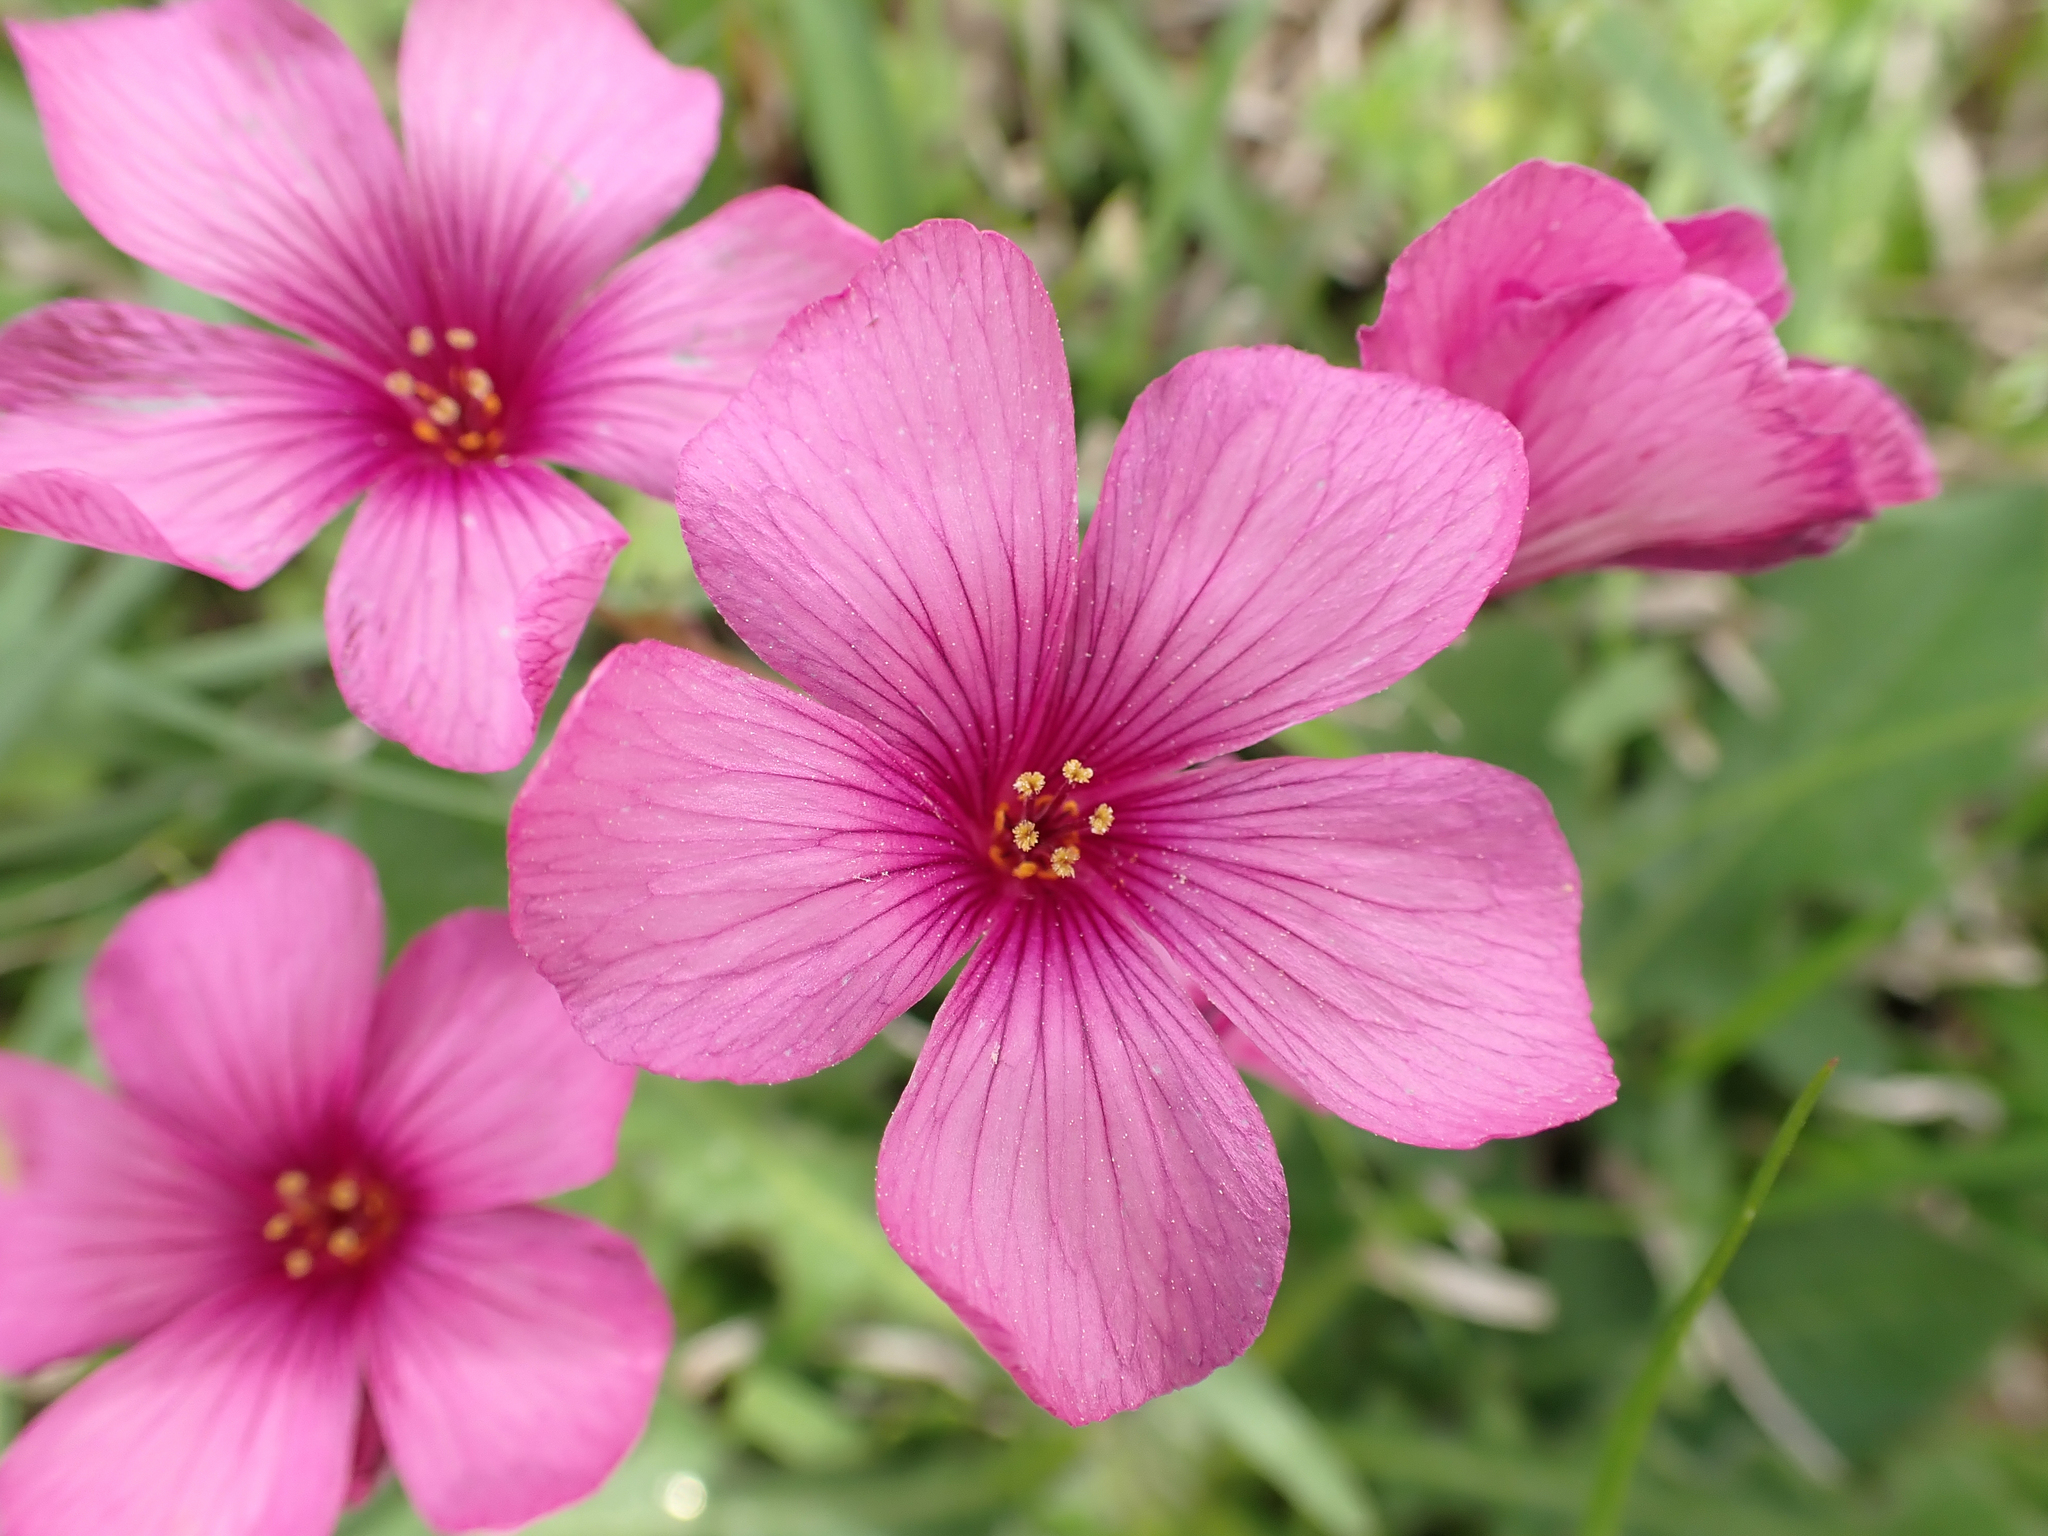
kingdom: Plantae
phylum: Tracheophyta
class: Magnoliopsida
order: Oxalidales
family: Oxalidaceae
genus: Oxalis
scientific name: Oxalis brasiliensis
